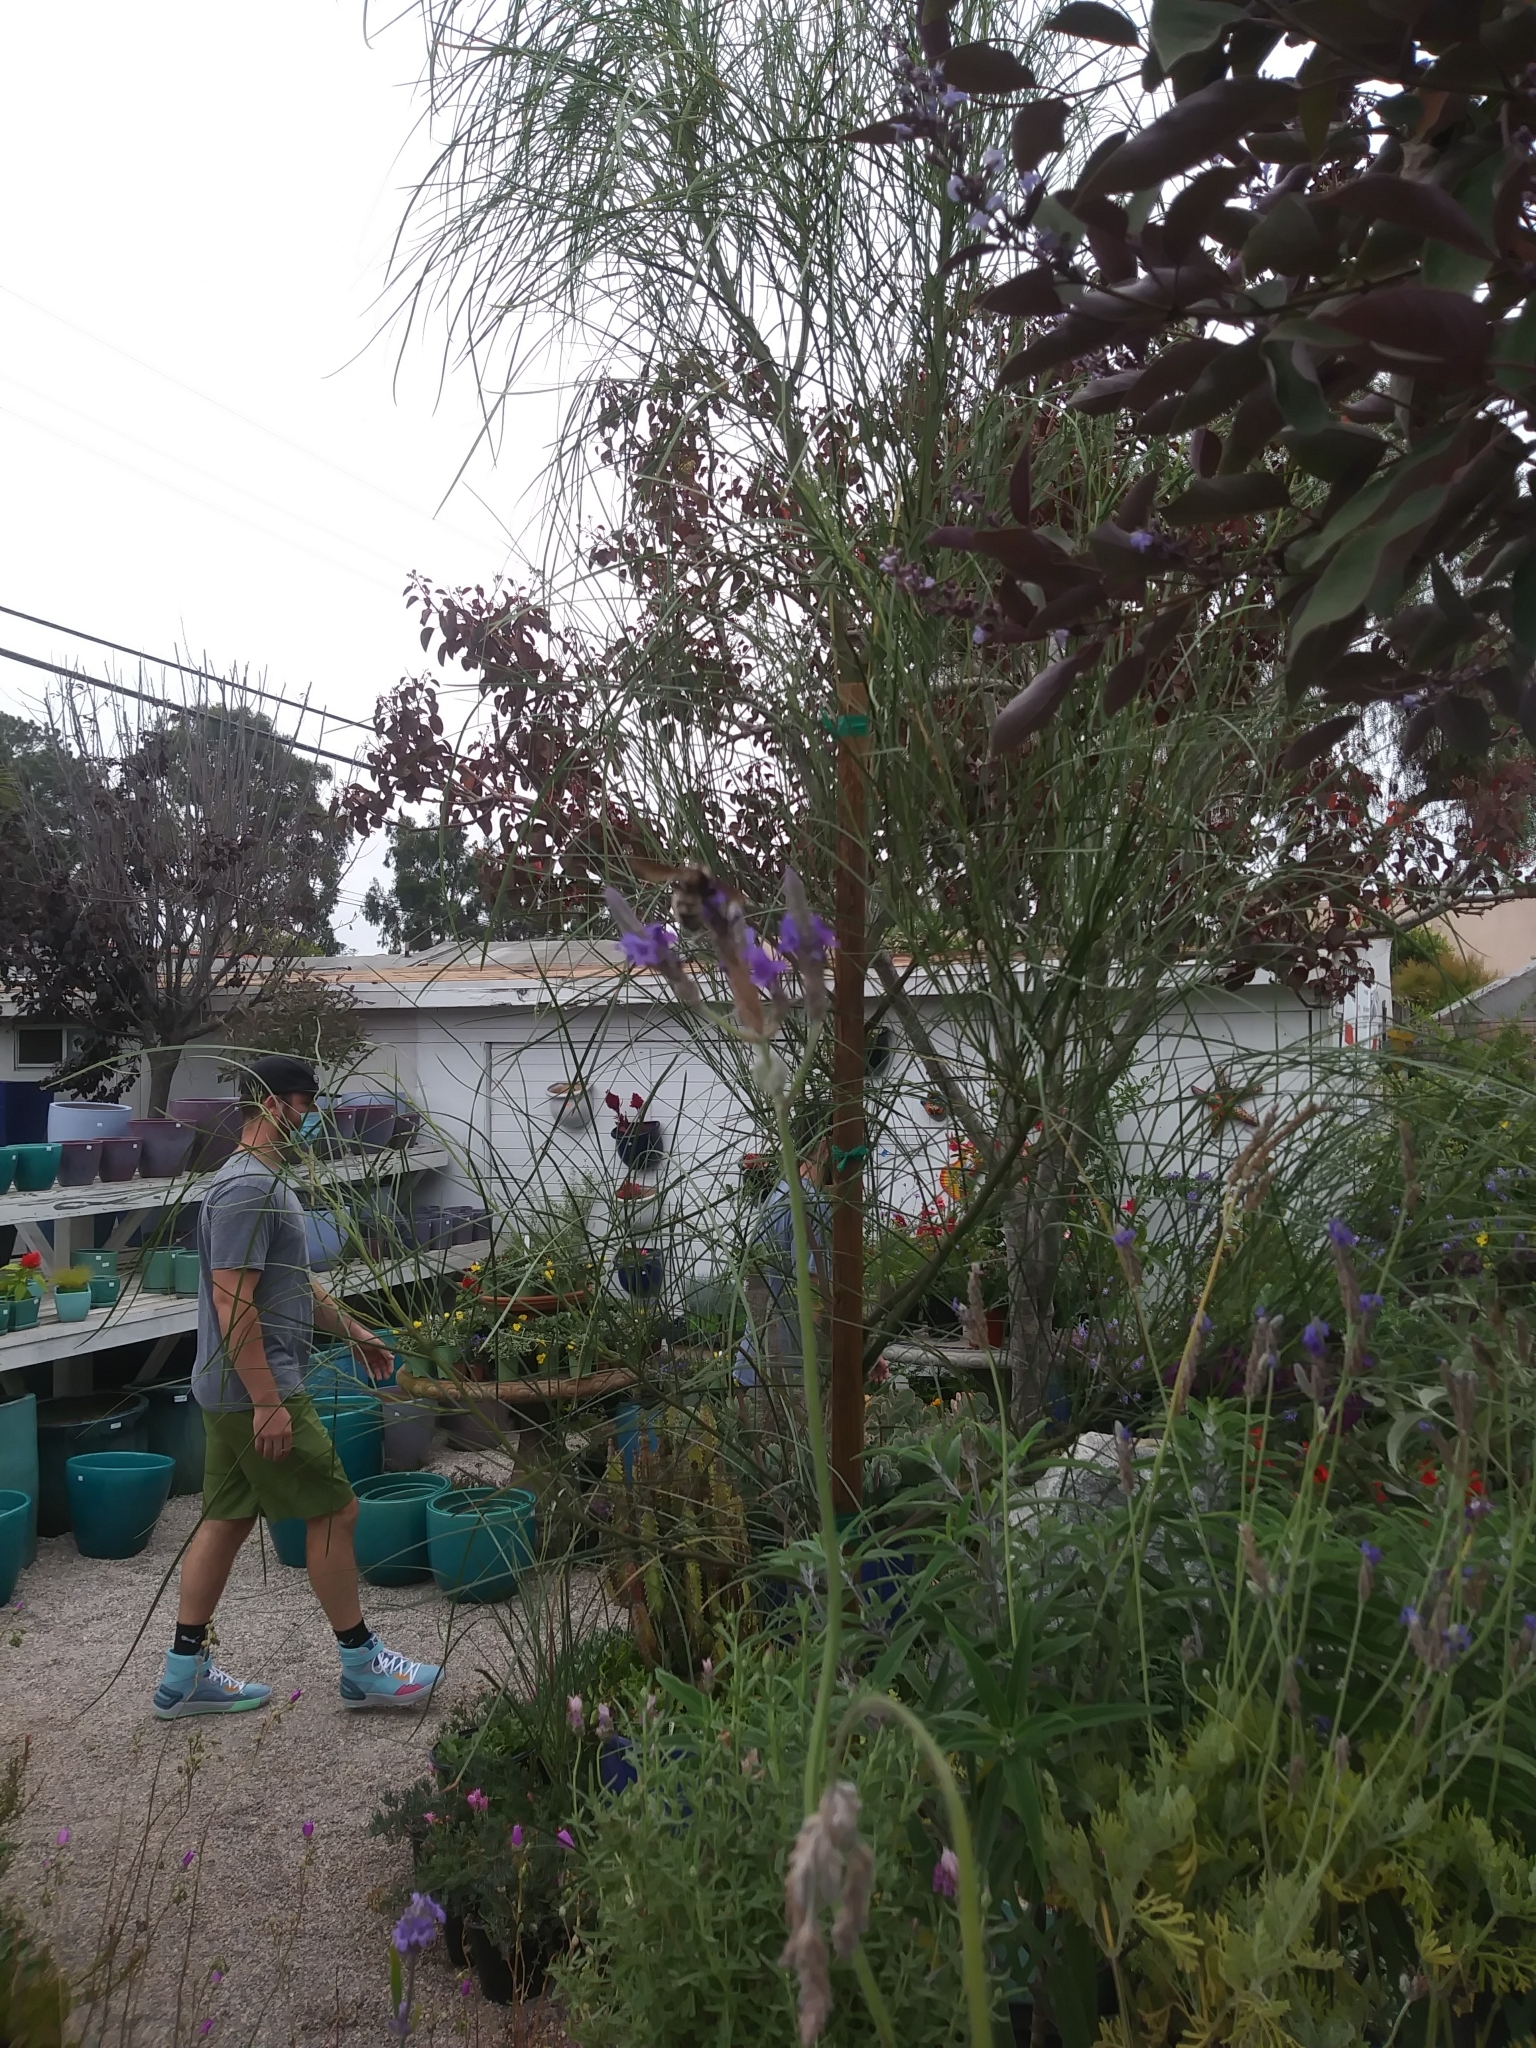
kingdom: Animalia
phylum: Arthropoda
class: Insecta
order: Hymenoptera
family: Apidae
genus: Bombus
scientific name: Bombus sonorus
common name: Sonoran bumble bee
